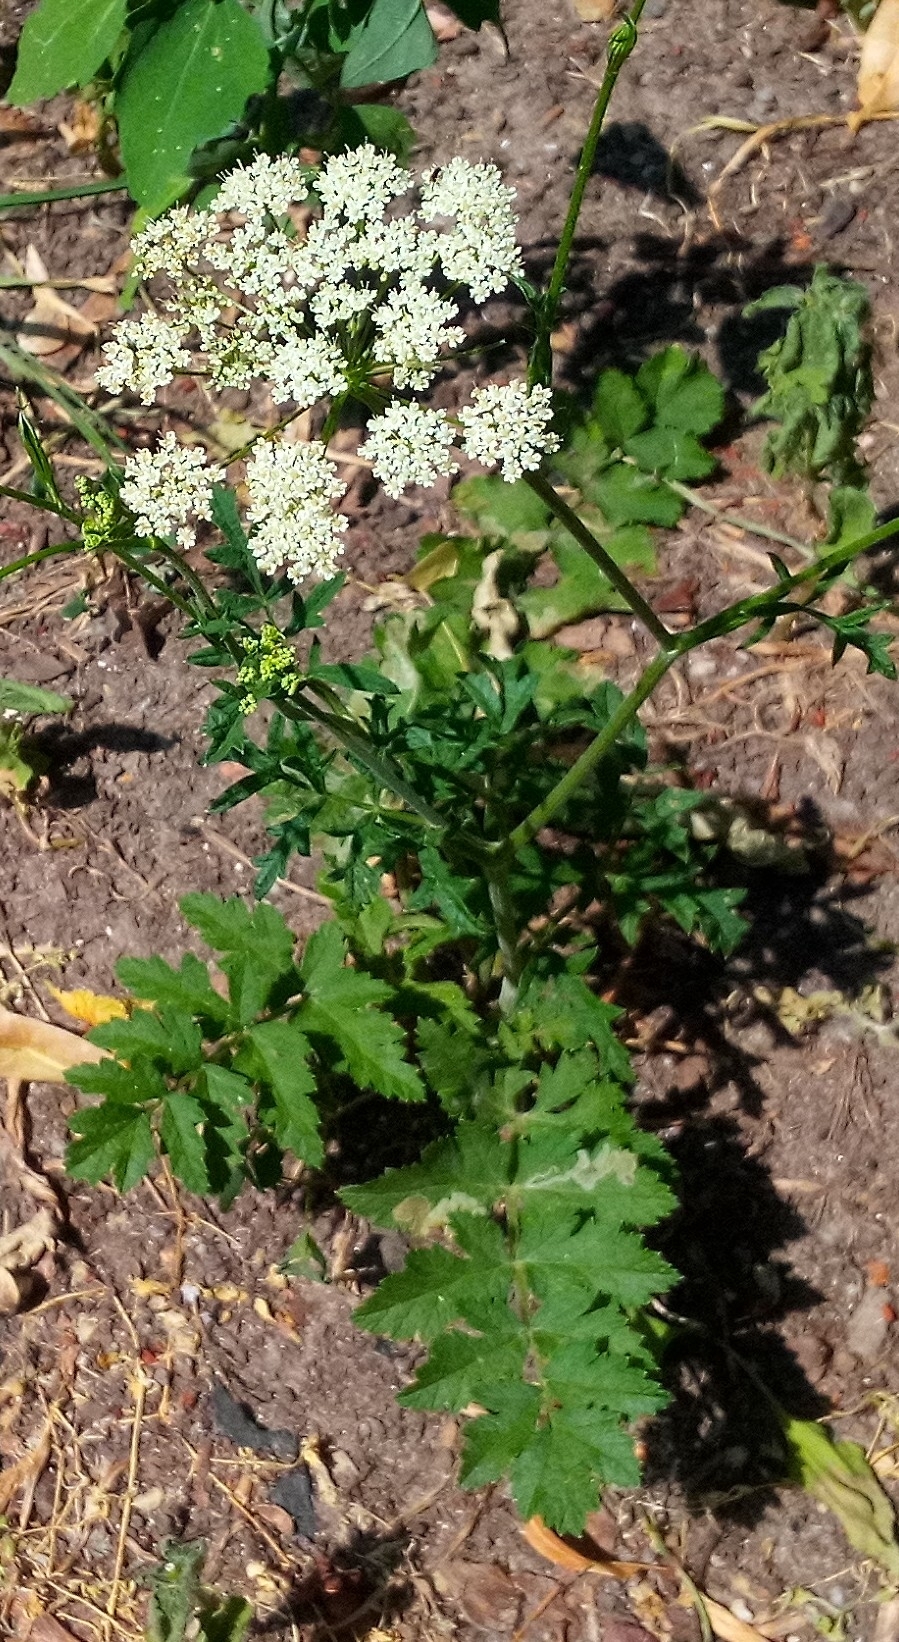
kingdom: Plantae
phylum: Tracheophyta
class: Magnoliopsida
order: Apiales
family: Apiaceae
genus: Pimpinella
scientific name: Pimpinella saxifraga
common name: Burnet-saxifrage
